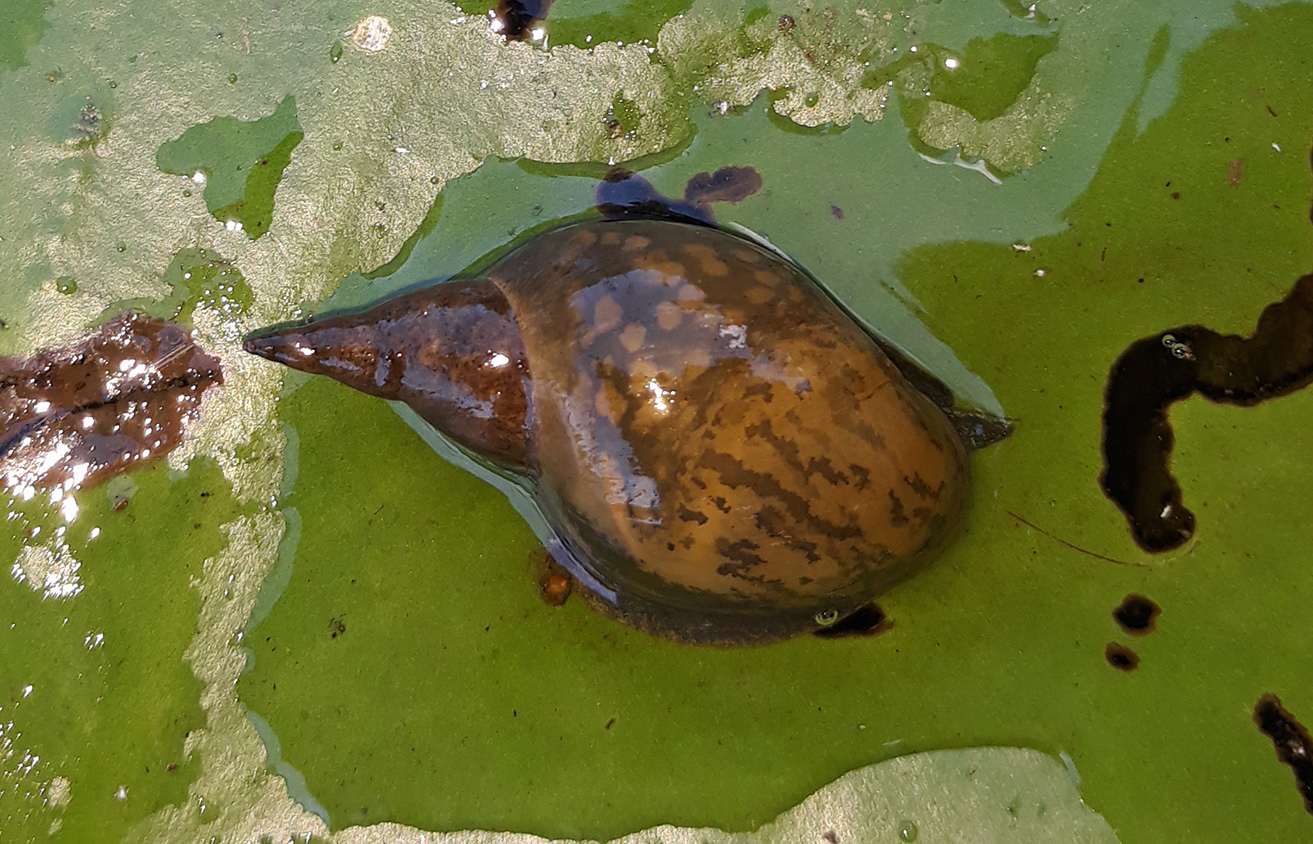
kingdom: Animalia
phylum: Mollusca
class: Gastropoda
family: Lymnaeidae
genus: Lymnaea
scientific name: Lymnaea stagnalis
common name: Great pond snail
